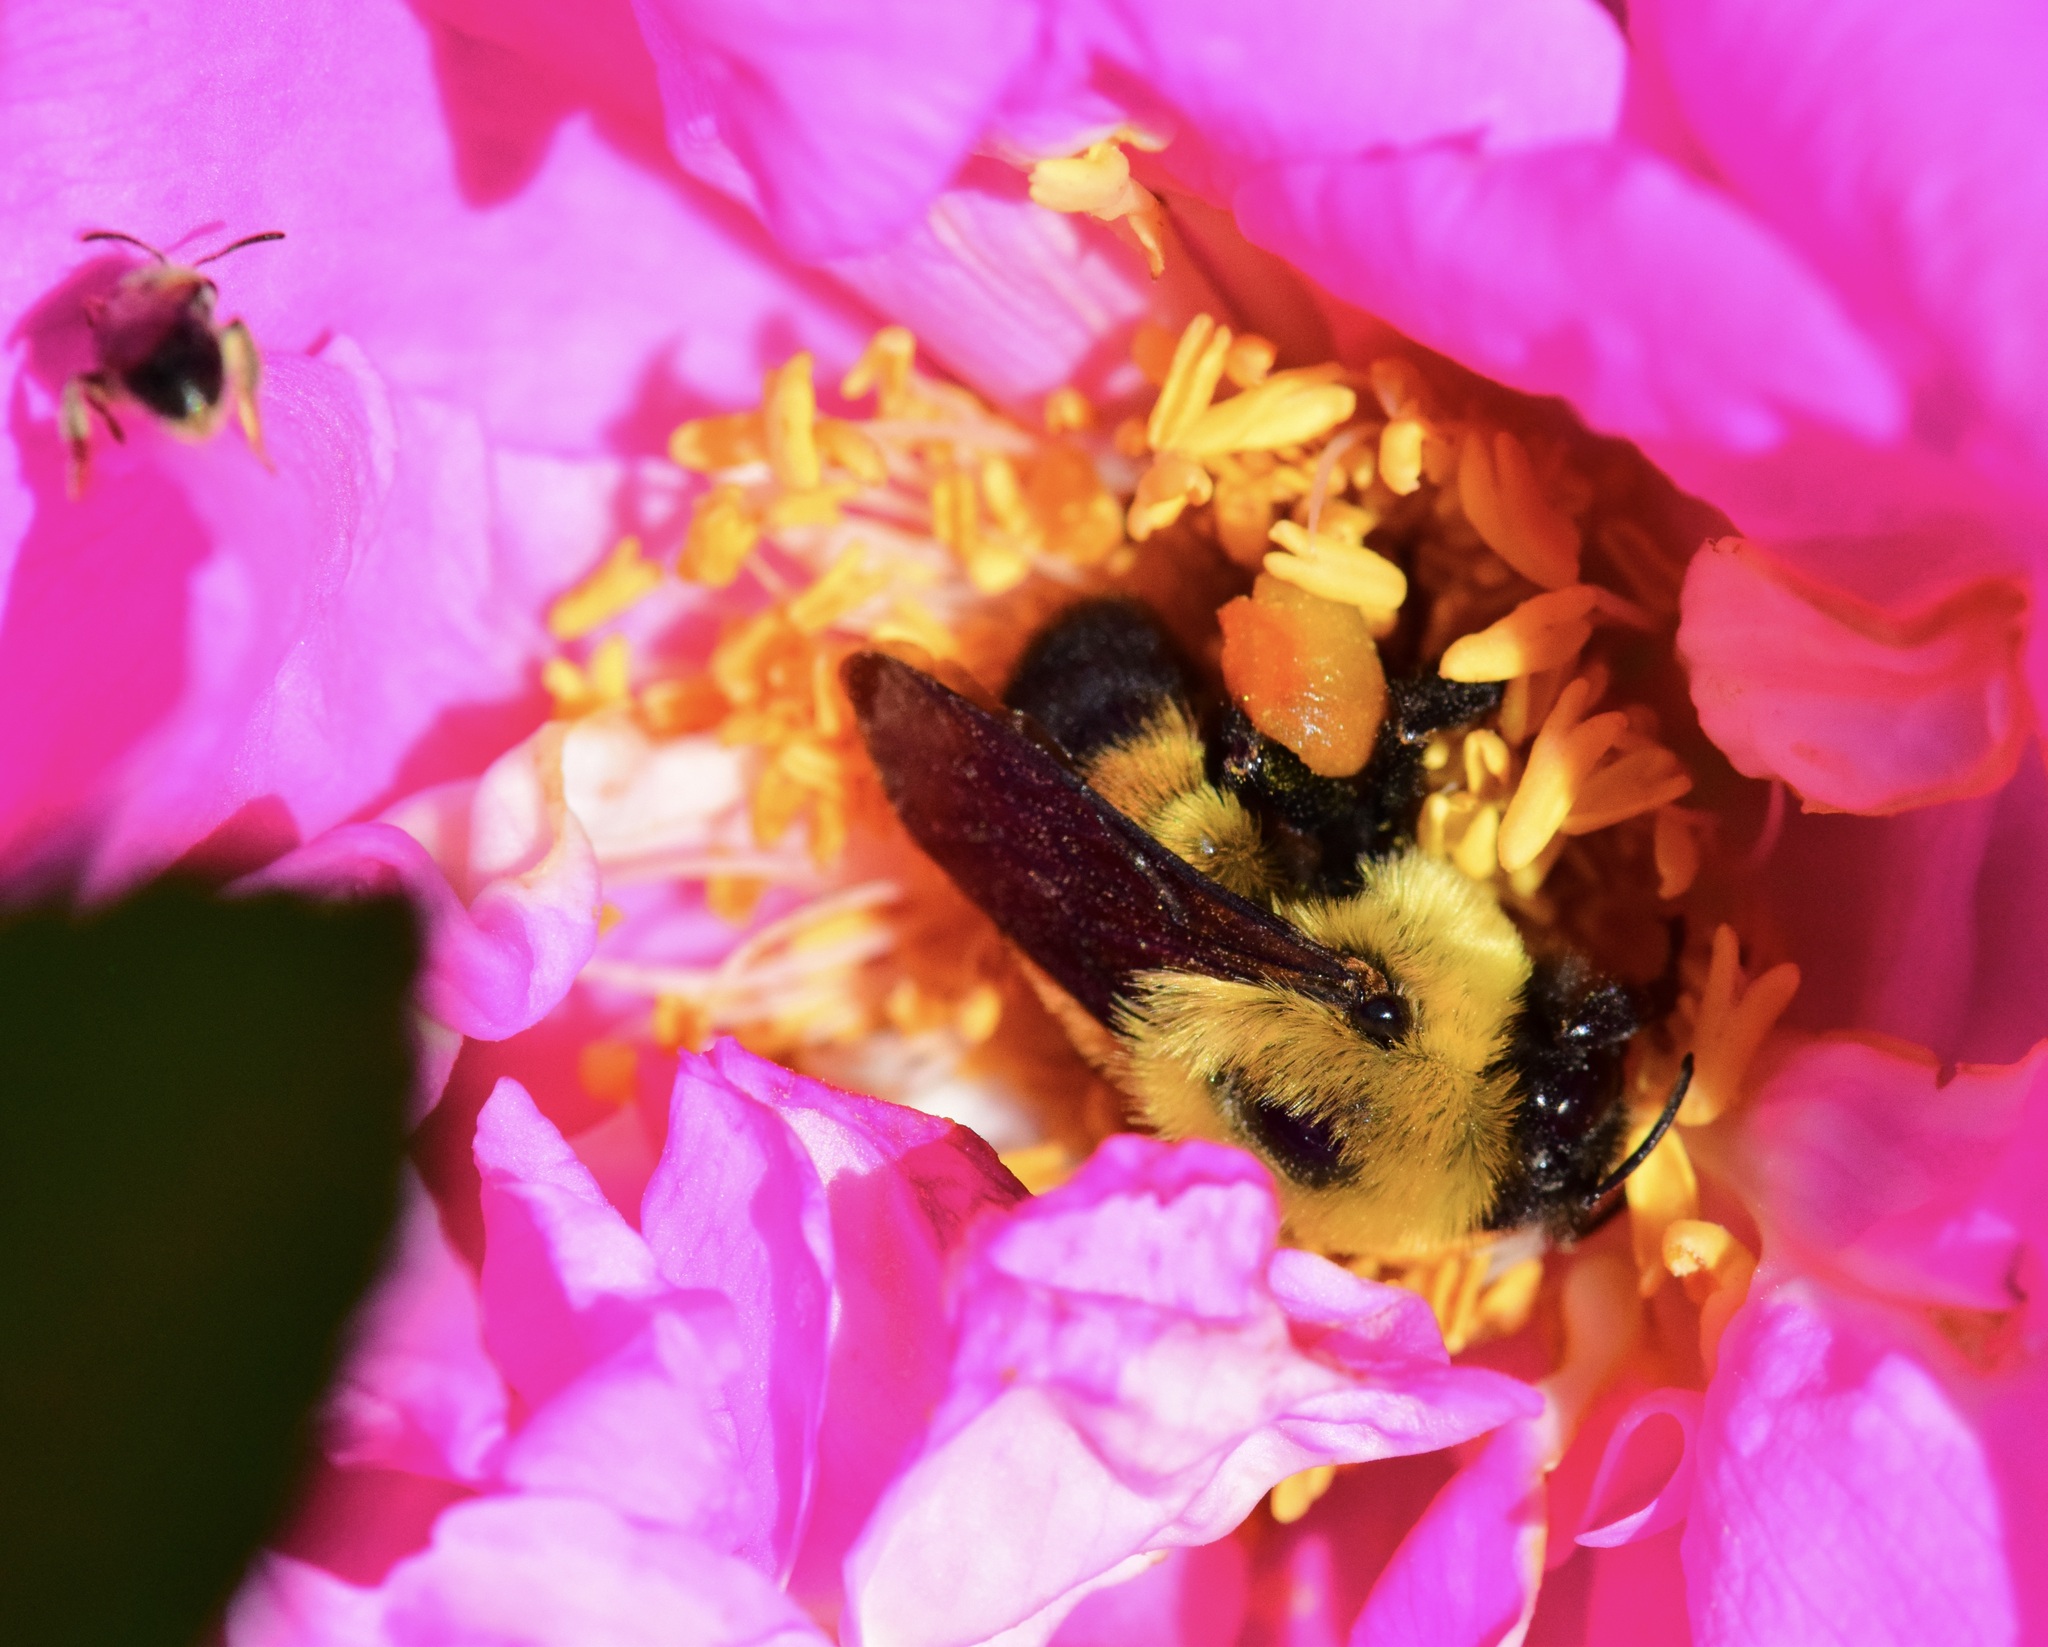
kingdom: Animalia
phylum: Arthropoda
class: Insecta
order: Hymenoptera
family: Apidae
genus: Bombus
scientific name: Bombus griseocollis
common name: Brown-belted bumble bee
